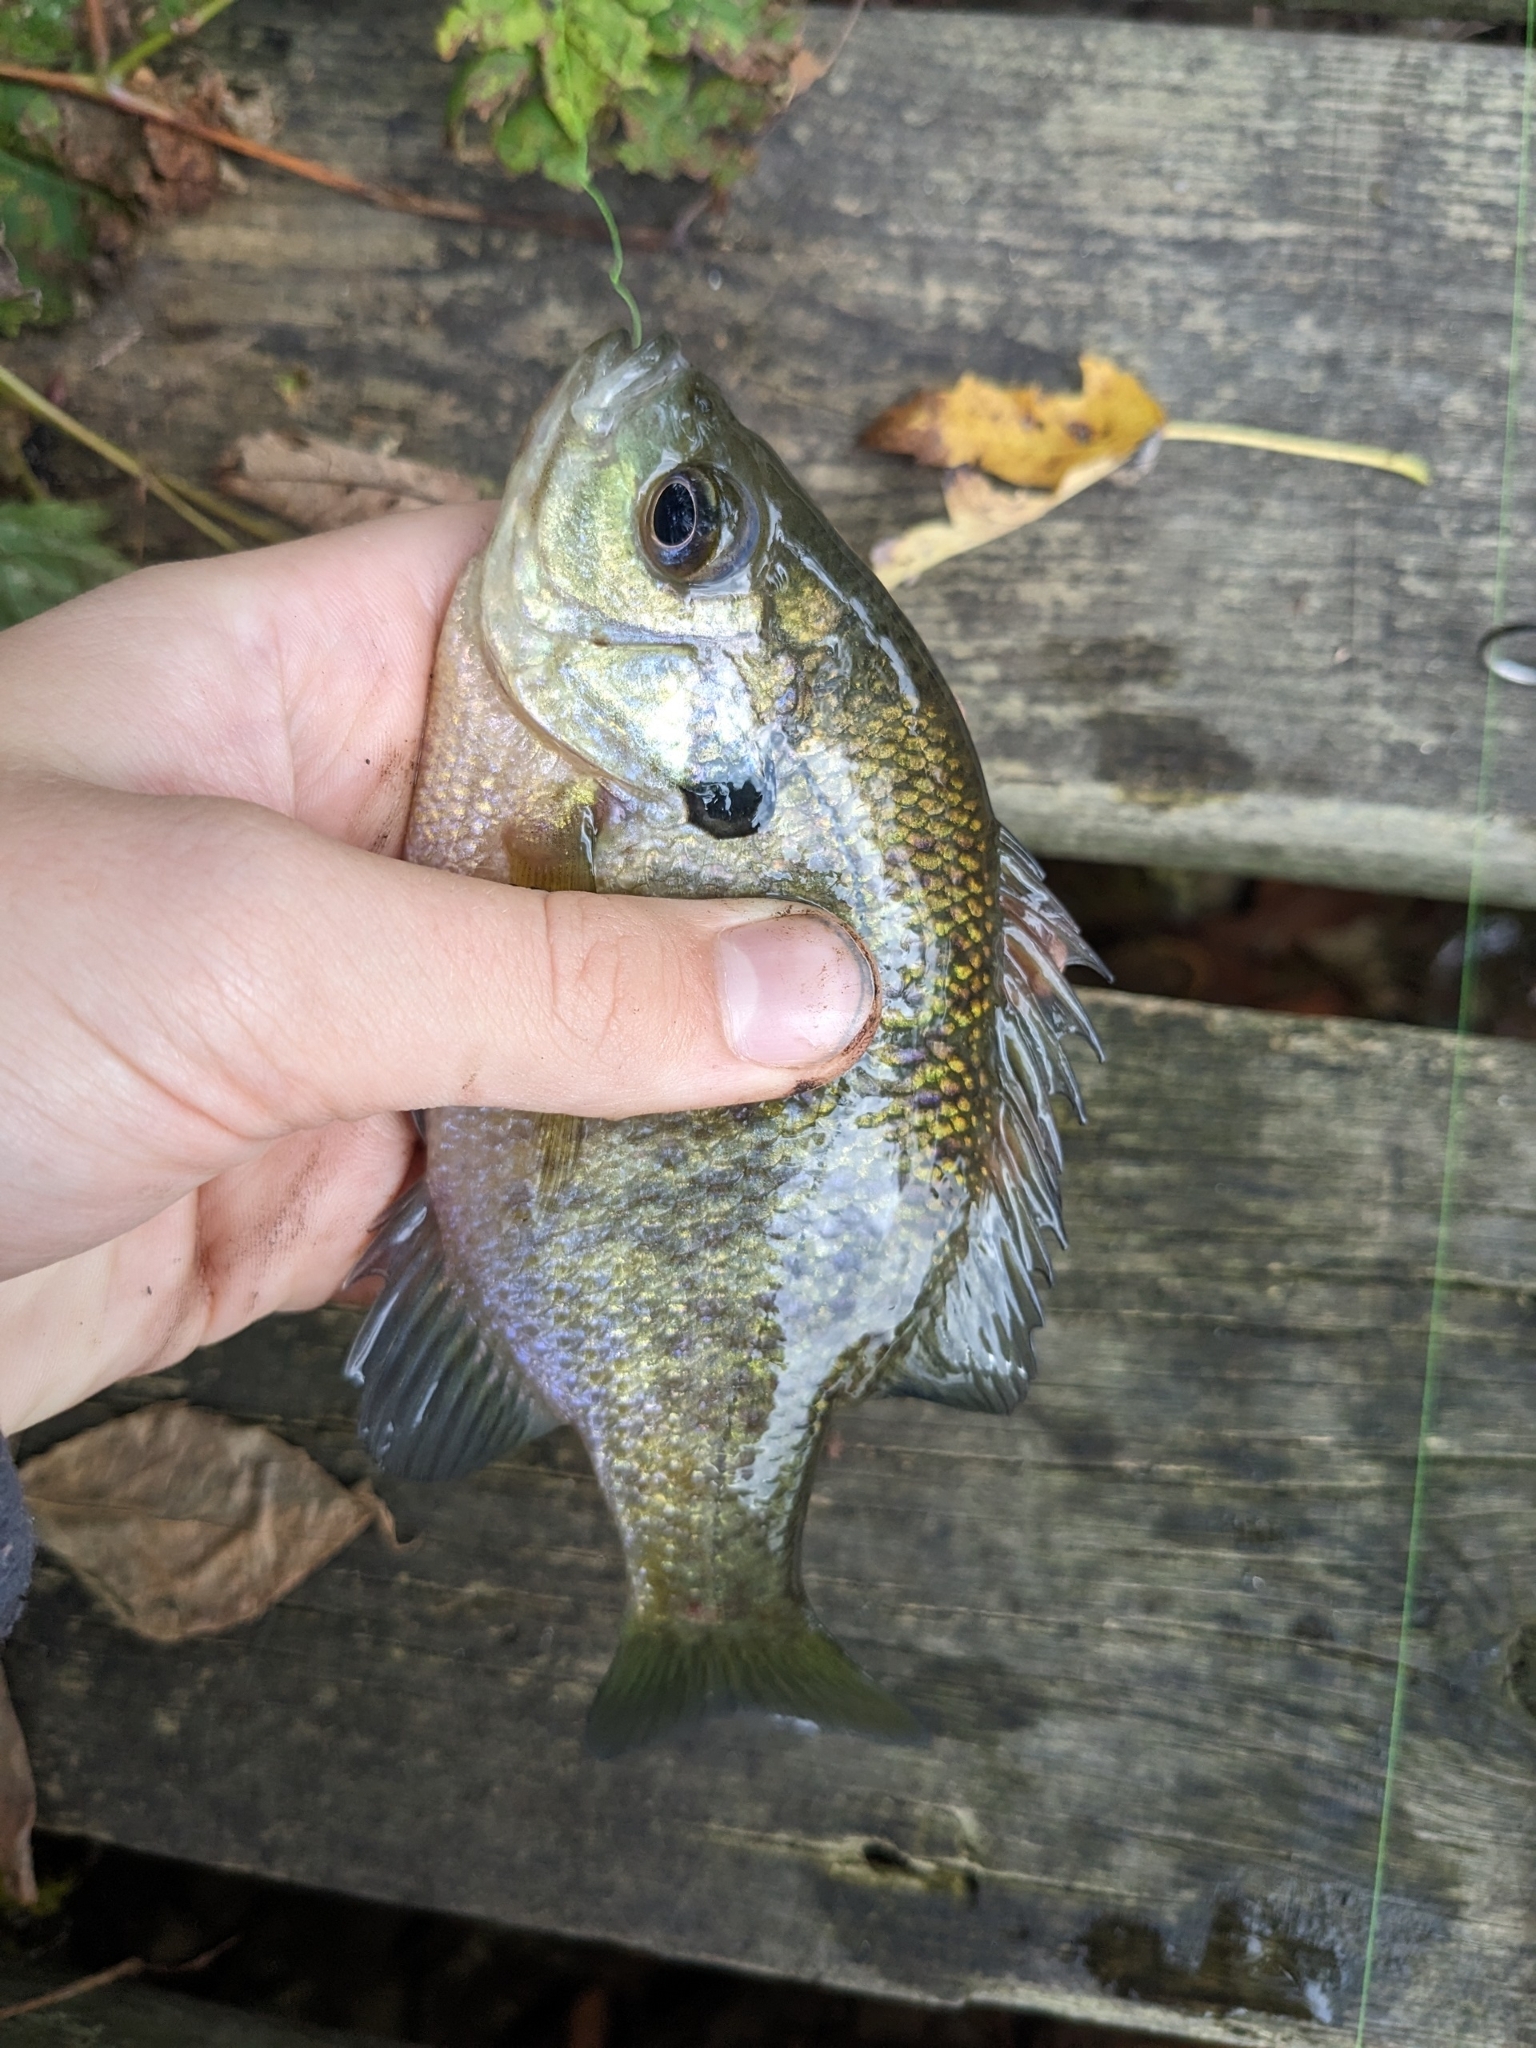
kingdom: Animalia
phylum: Chordata
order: Perciformes
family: Centrarchidae
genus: Lepomis
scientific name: Lepomis macrochirus
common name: Bluegill
